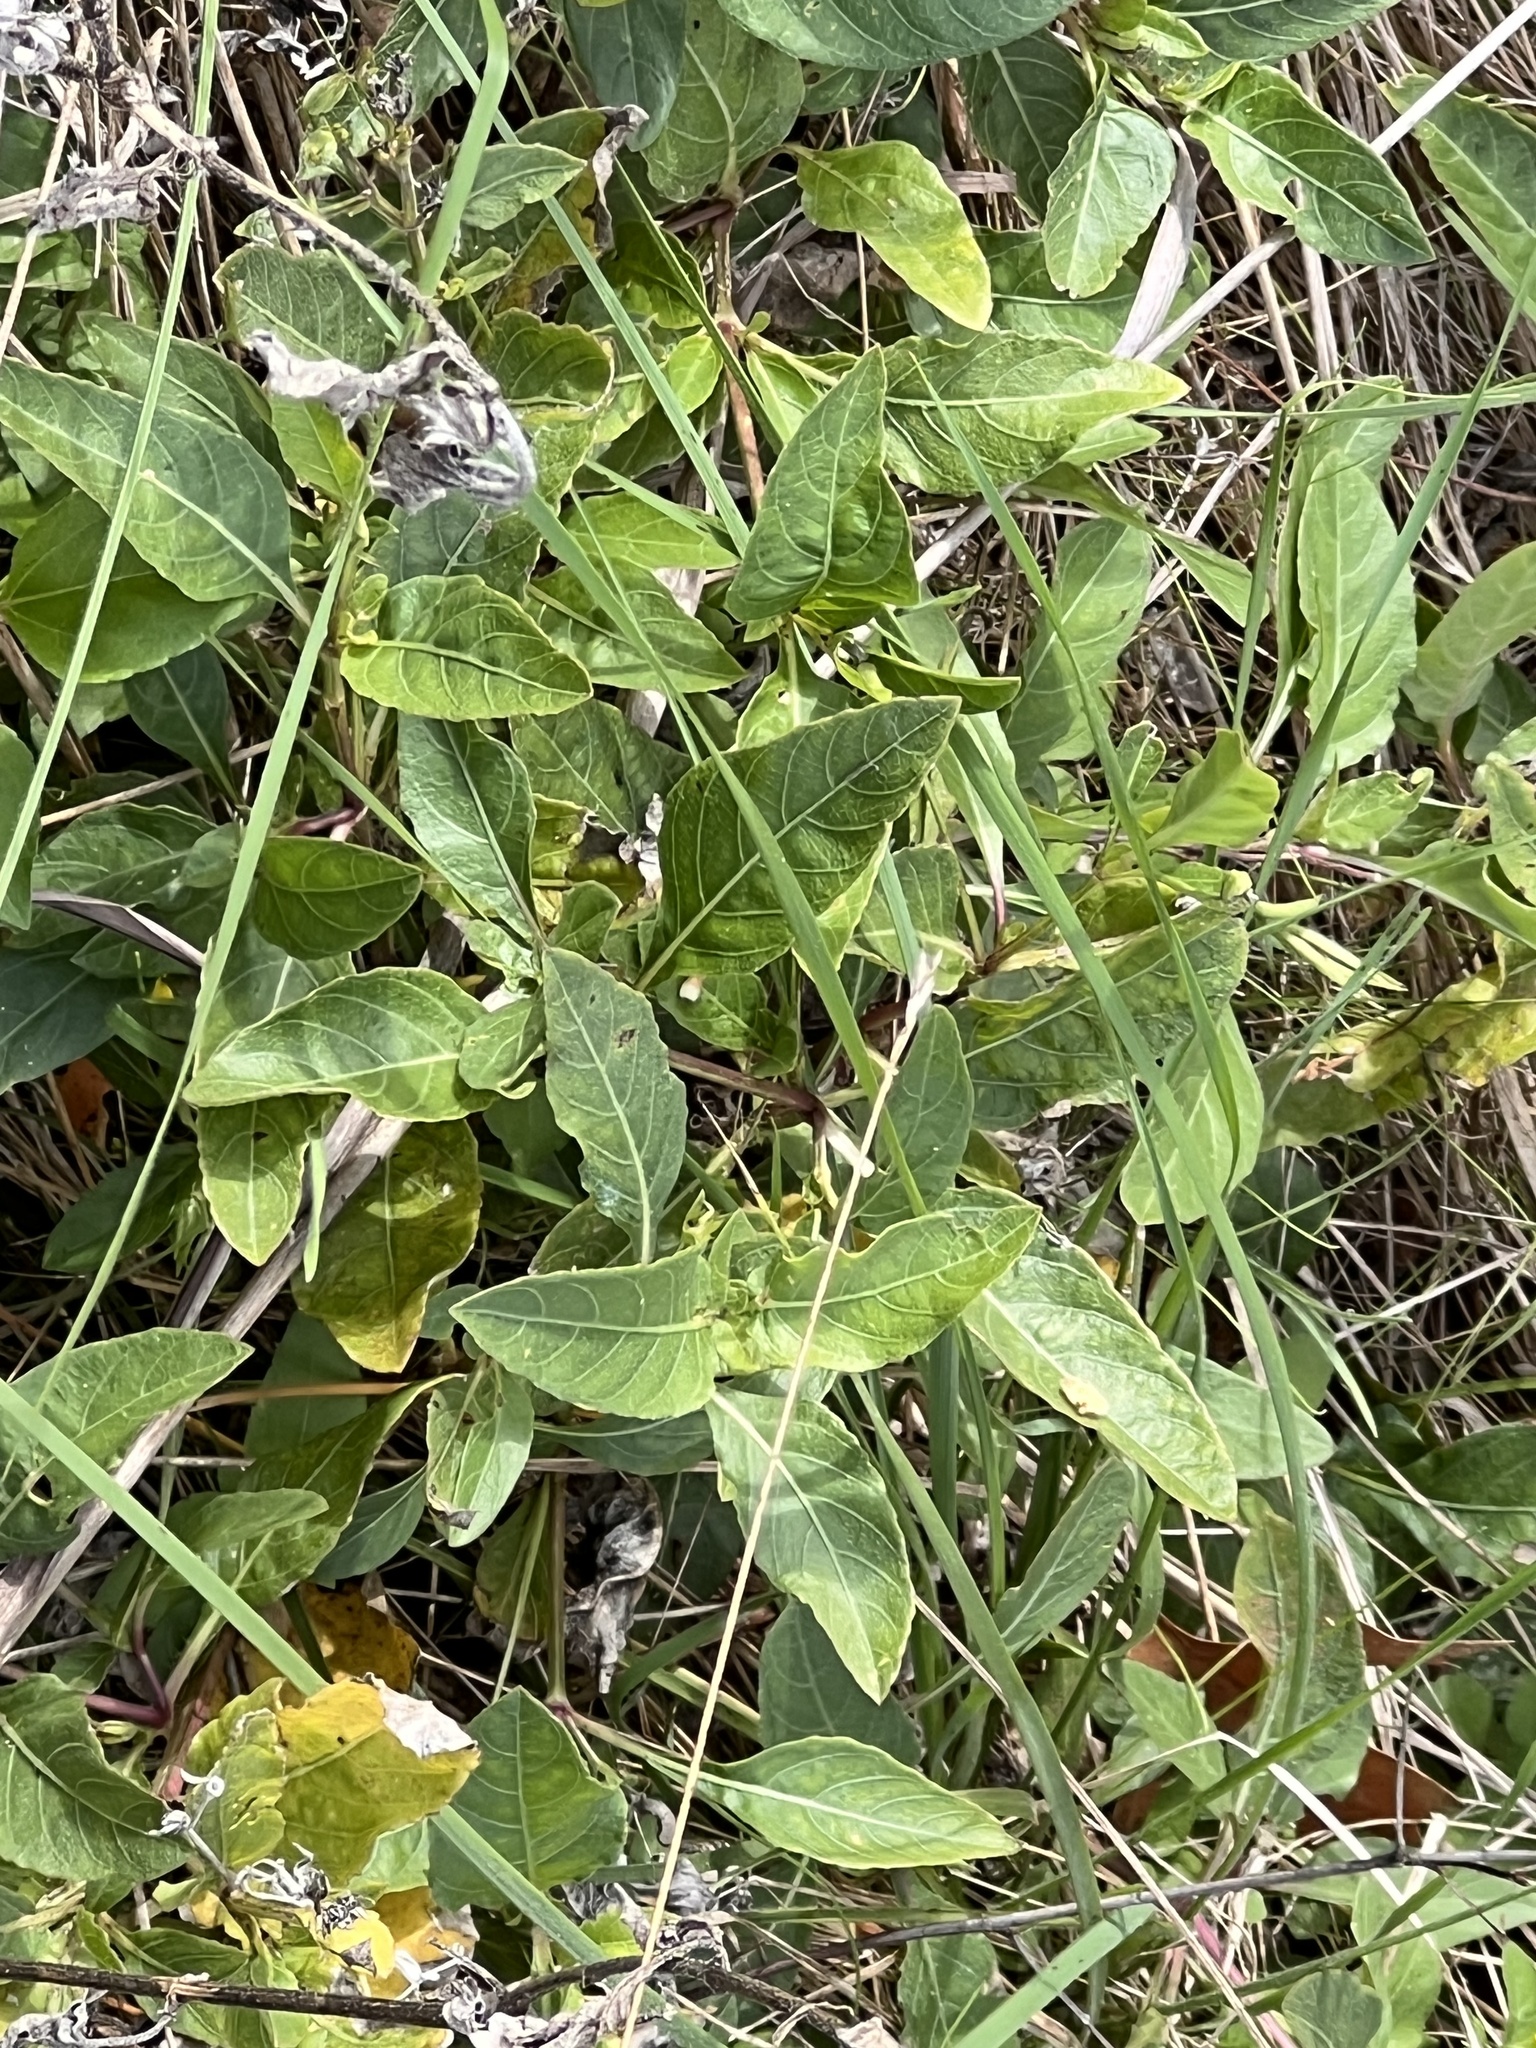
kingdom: Plantae
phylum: Tracheophyta
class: Magnoliopsida
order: Lamiales
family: Acanthaceae
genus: Ruellia
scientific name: Ruellia ciliatiflora
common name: Hairyflower wild petunia
